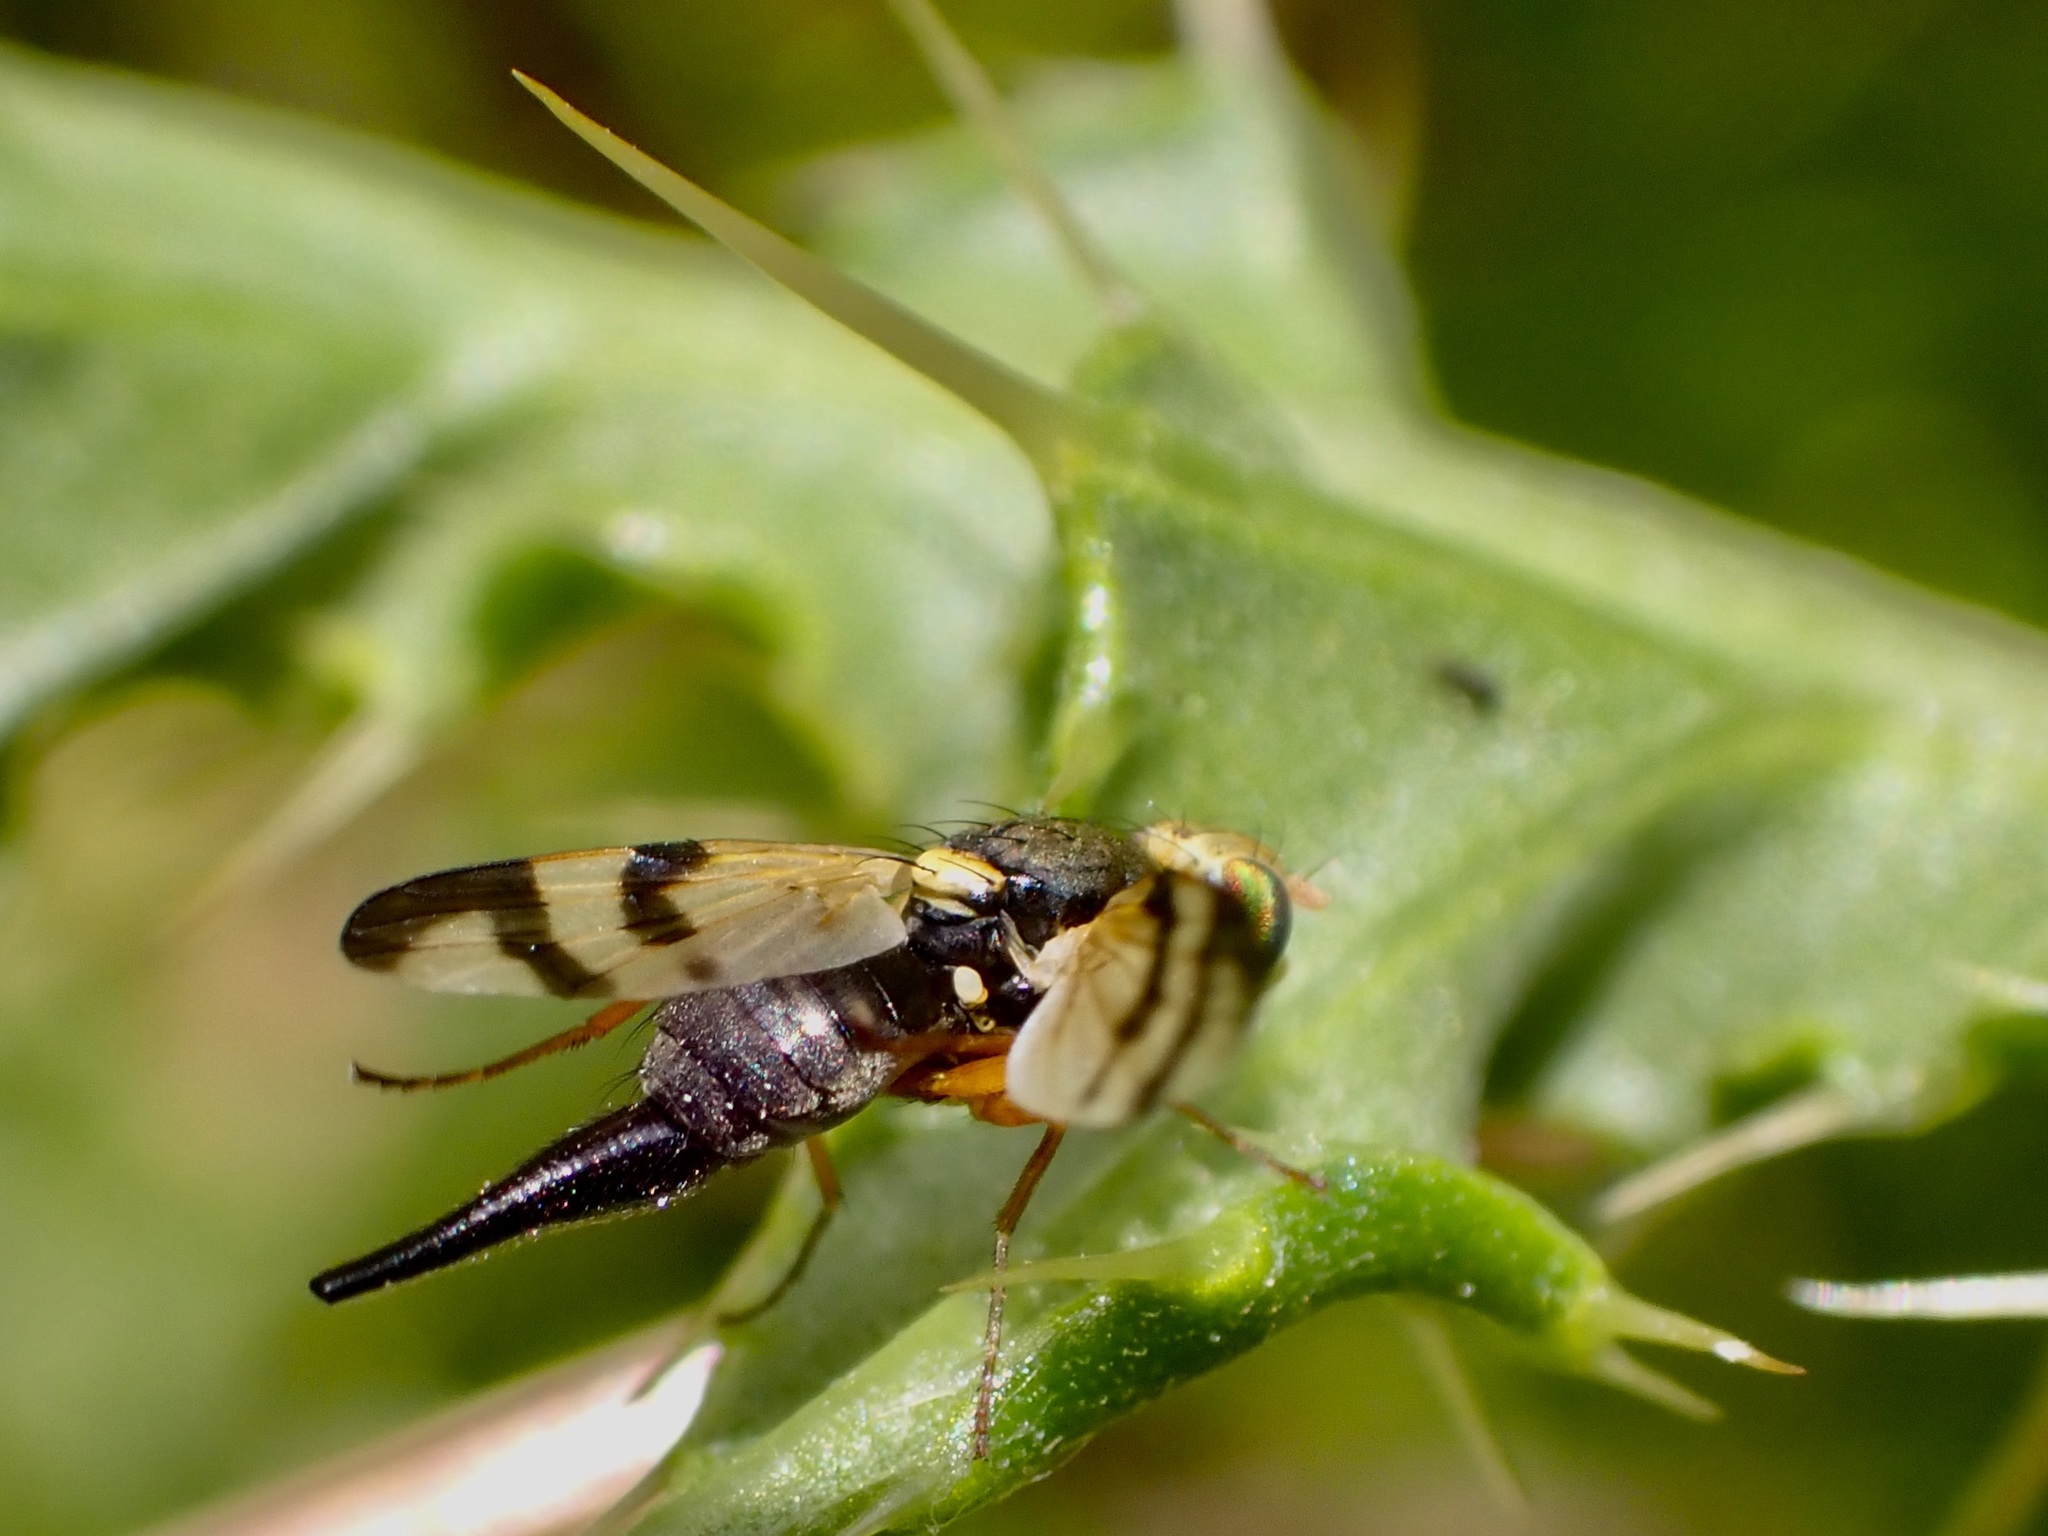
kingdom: Animalia
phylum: Arthropoda
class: Insecta
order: Diptera
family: Tephritidae
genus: Urophora
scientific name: Urophora stylata
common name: Fruit fly
